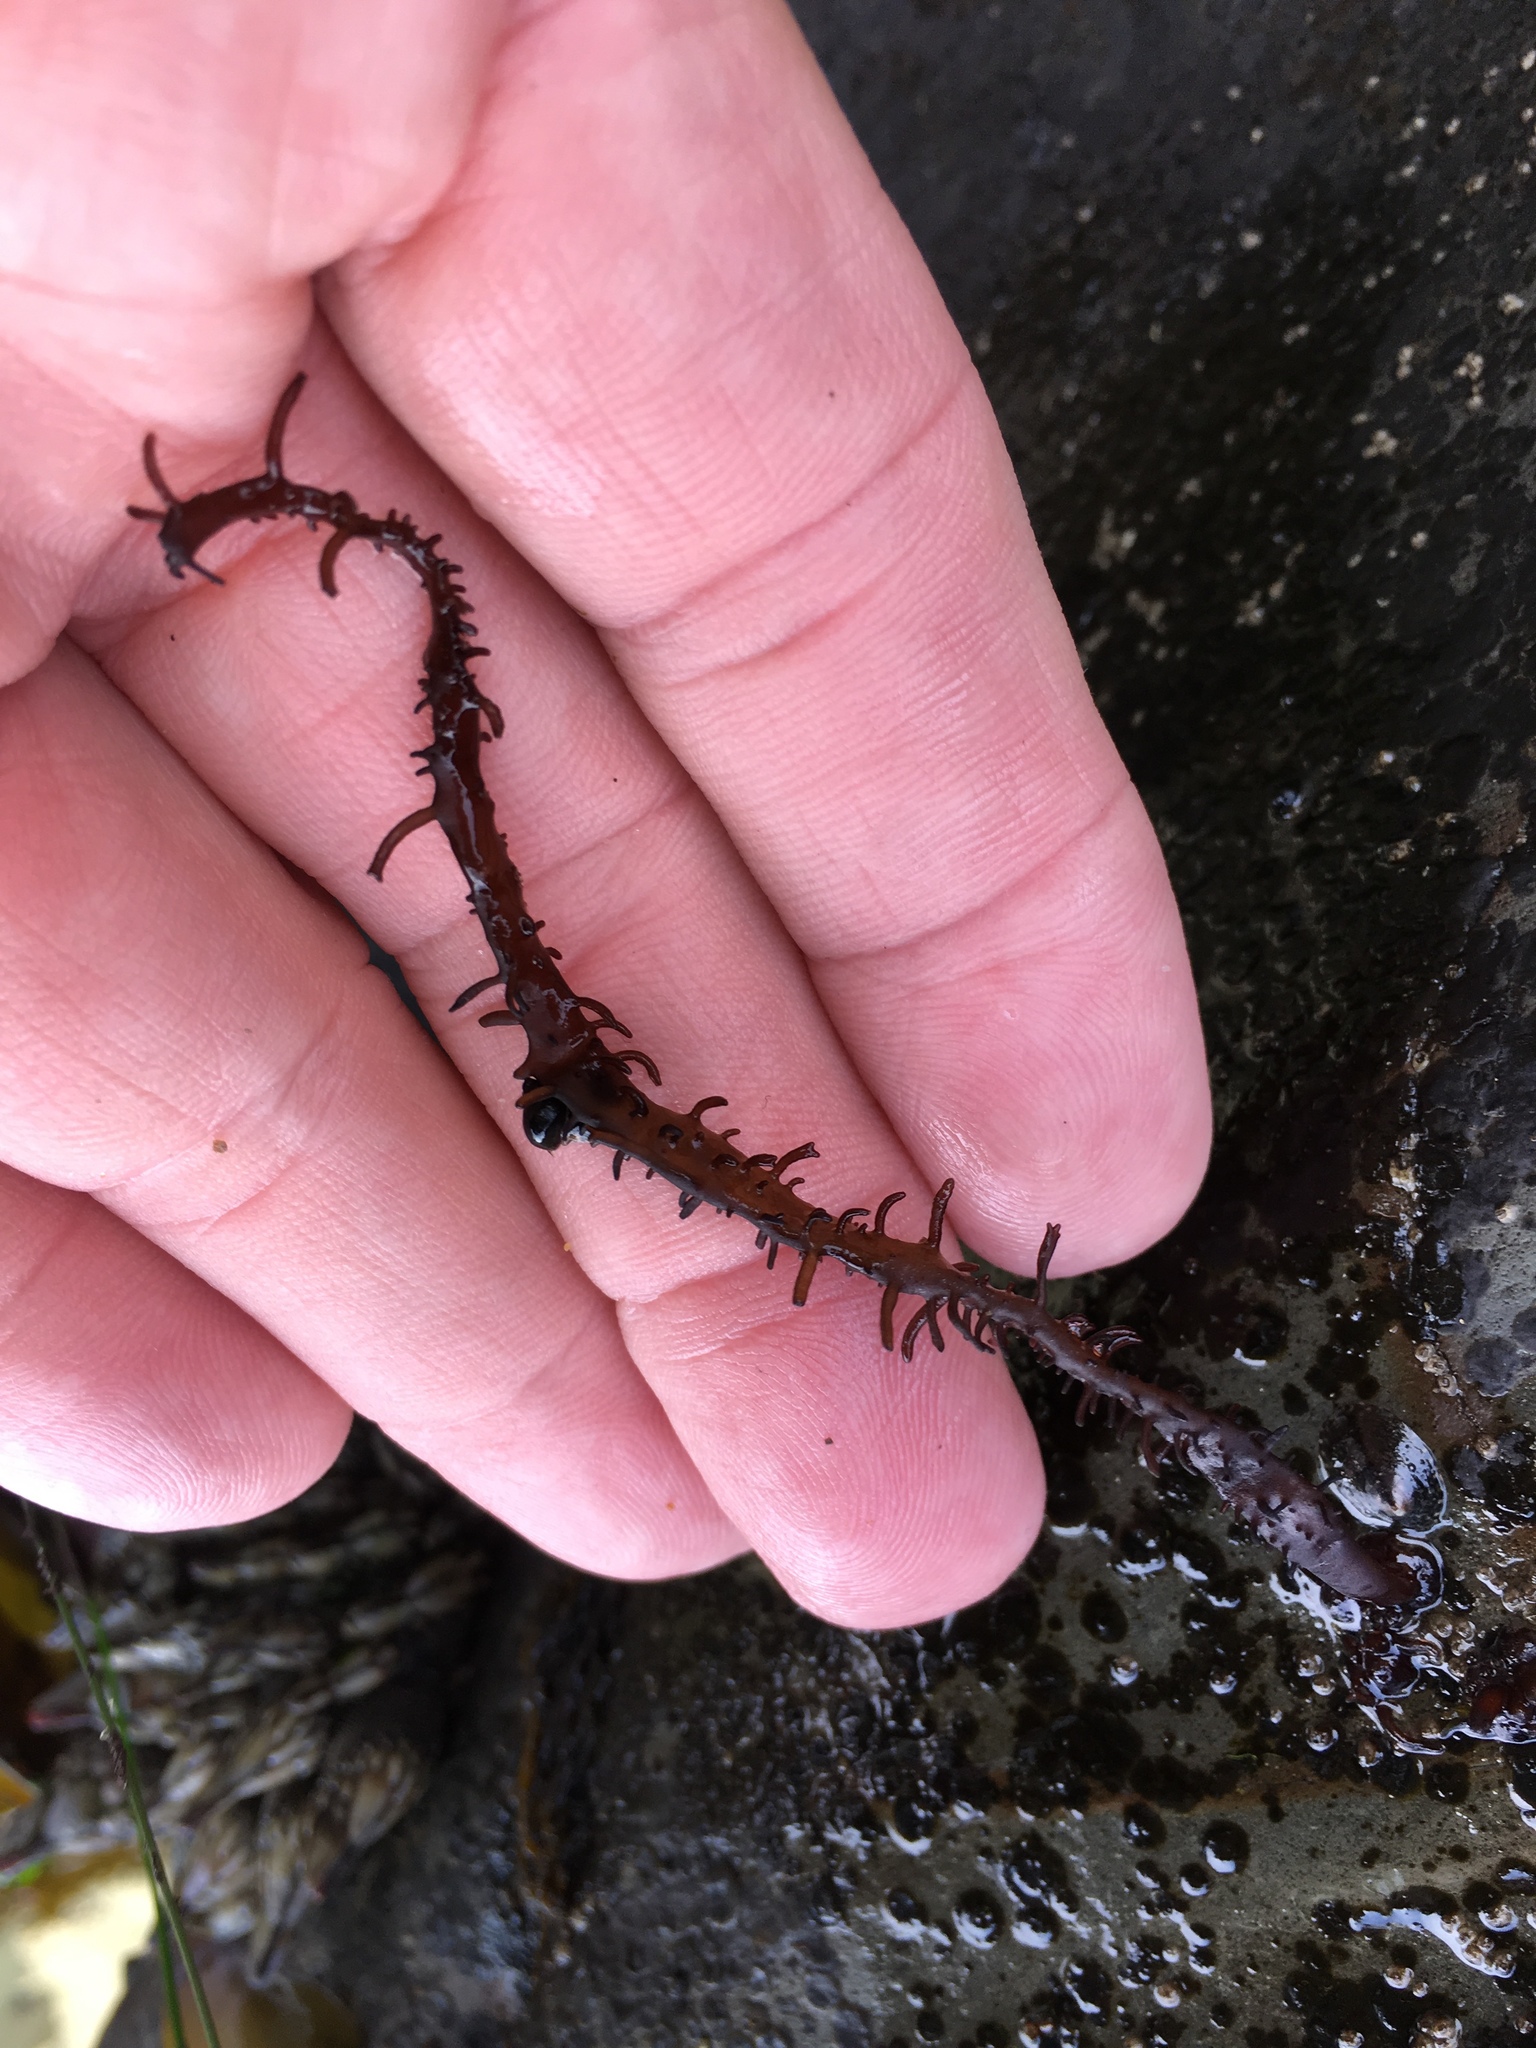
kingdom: Plantae
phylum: Rhodophyta
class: Florideophyceae
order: Nemaliales
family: Liagoraceae
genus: Cumagloia
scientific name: Cumagloia andersonii
